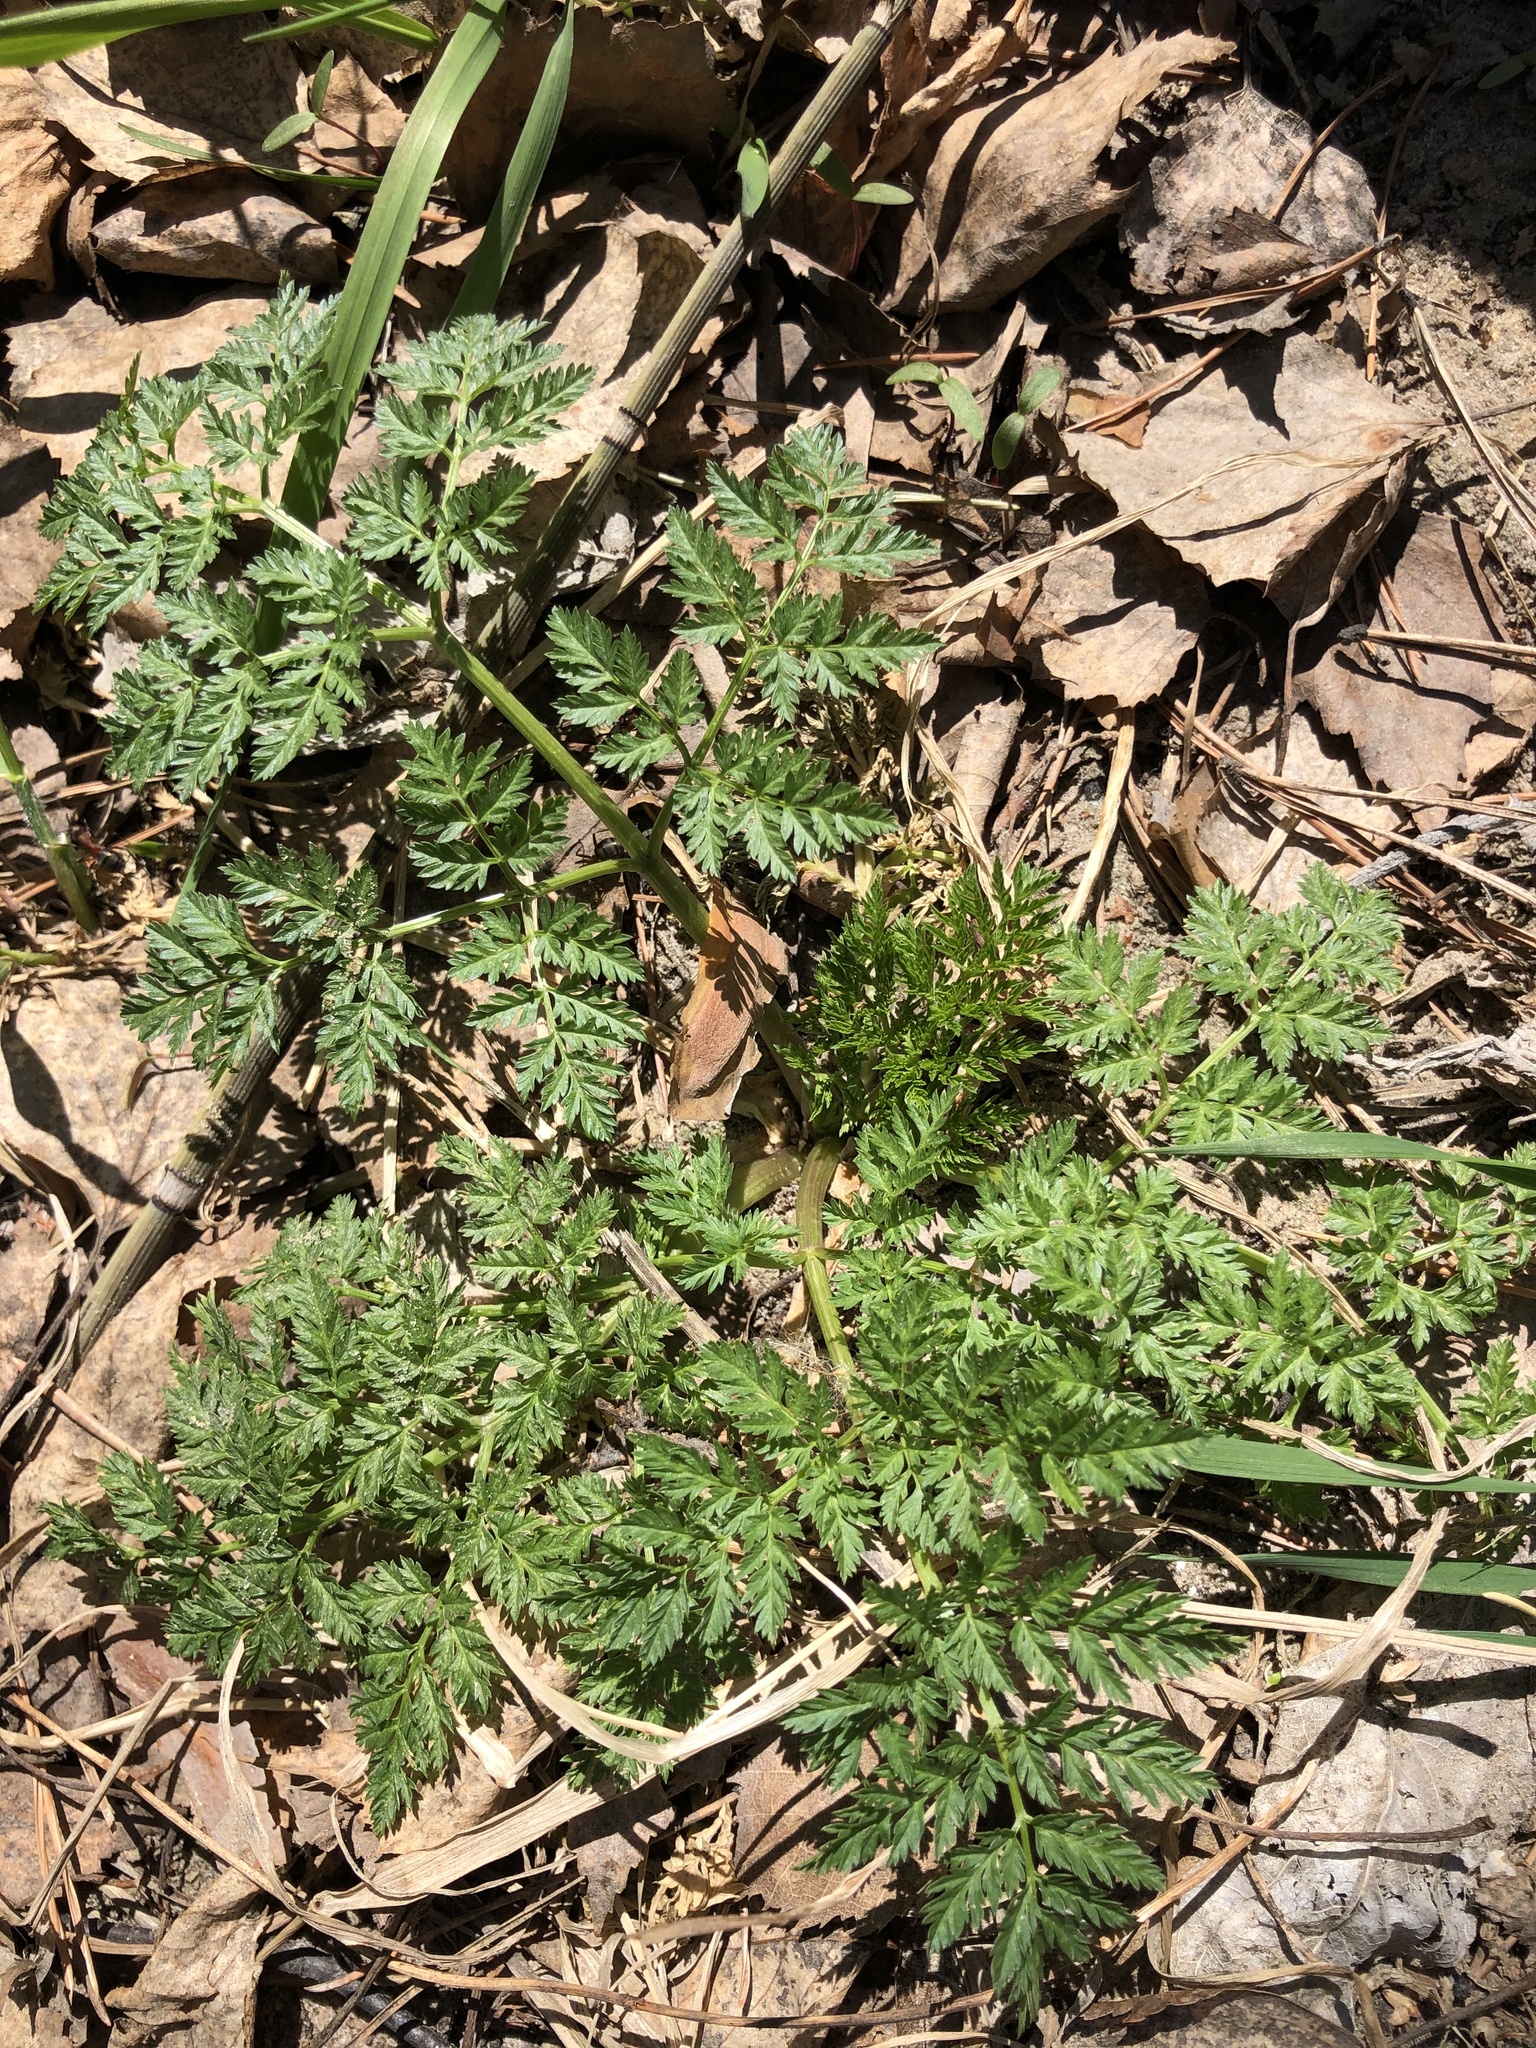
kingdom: Plantae
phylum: Tracheophyta
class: Magnoliopsida
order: Apiales
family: Apiaceae
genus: Anthriscus
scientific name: Anthriscus sylvestris
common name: Cow parsley
